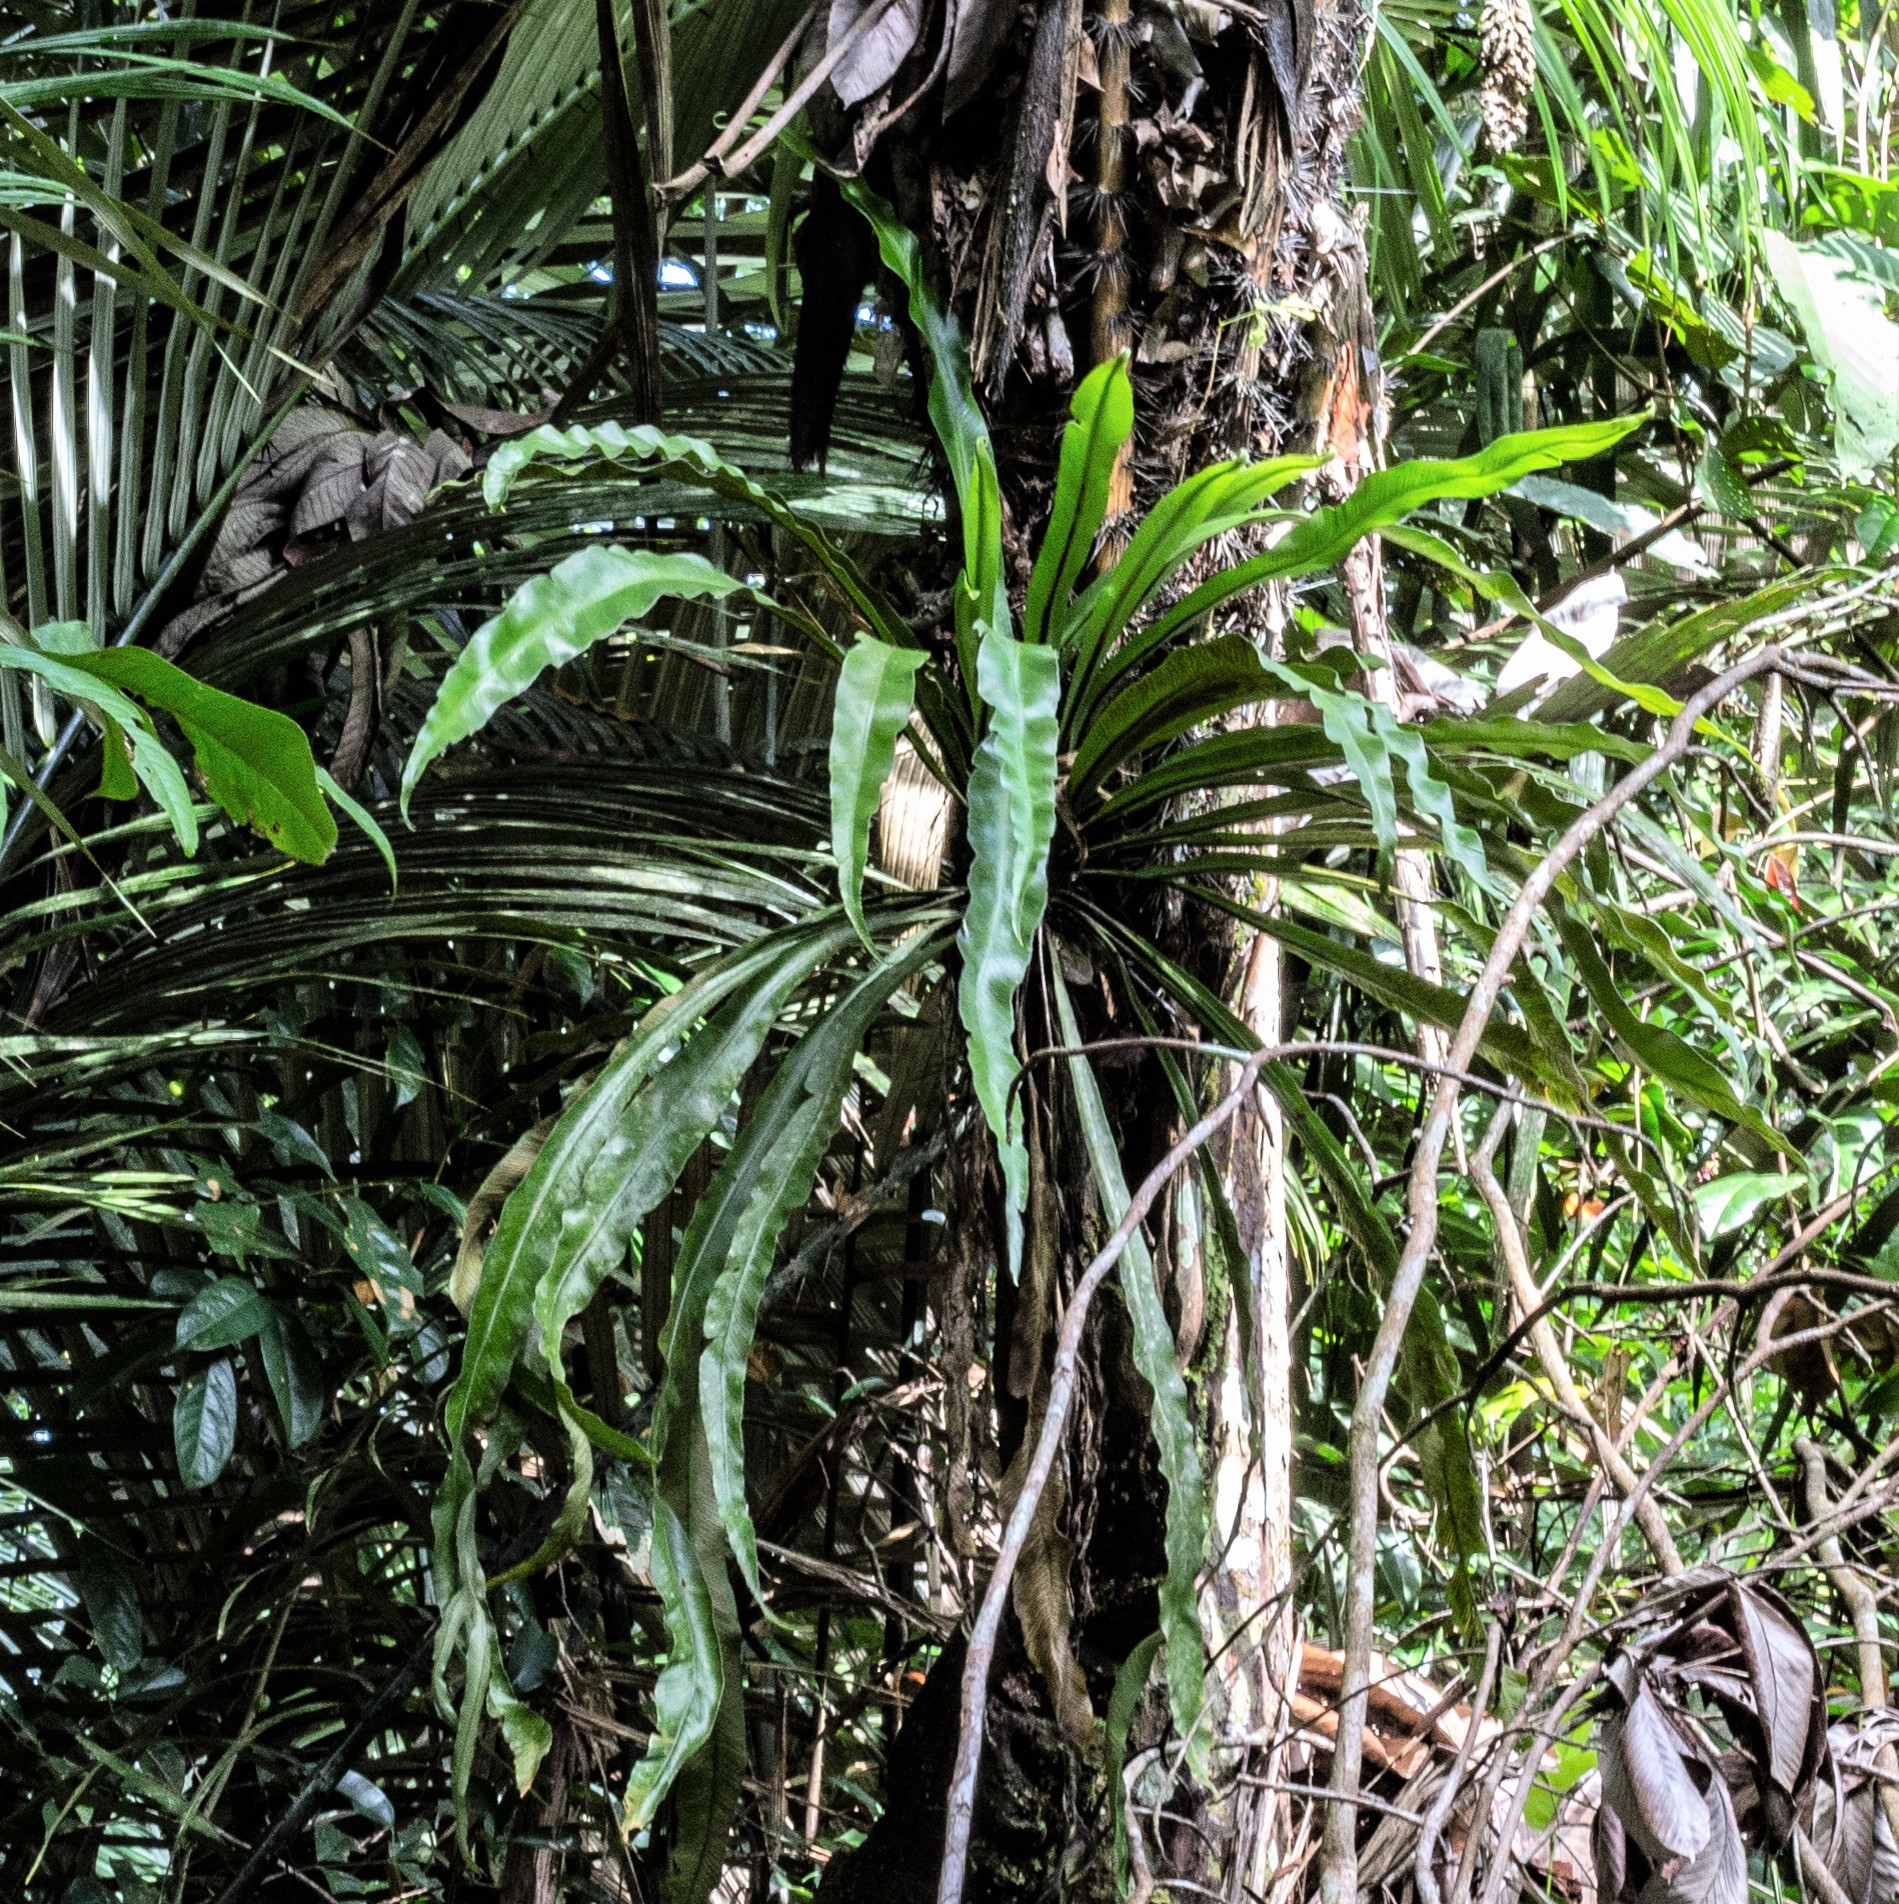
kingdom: Plantae
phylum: Tracheophyta
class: Polypodiopsida
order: Polypodiales
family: Aspleniaceae
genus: Asplenium
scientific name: Asplenium angustum
